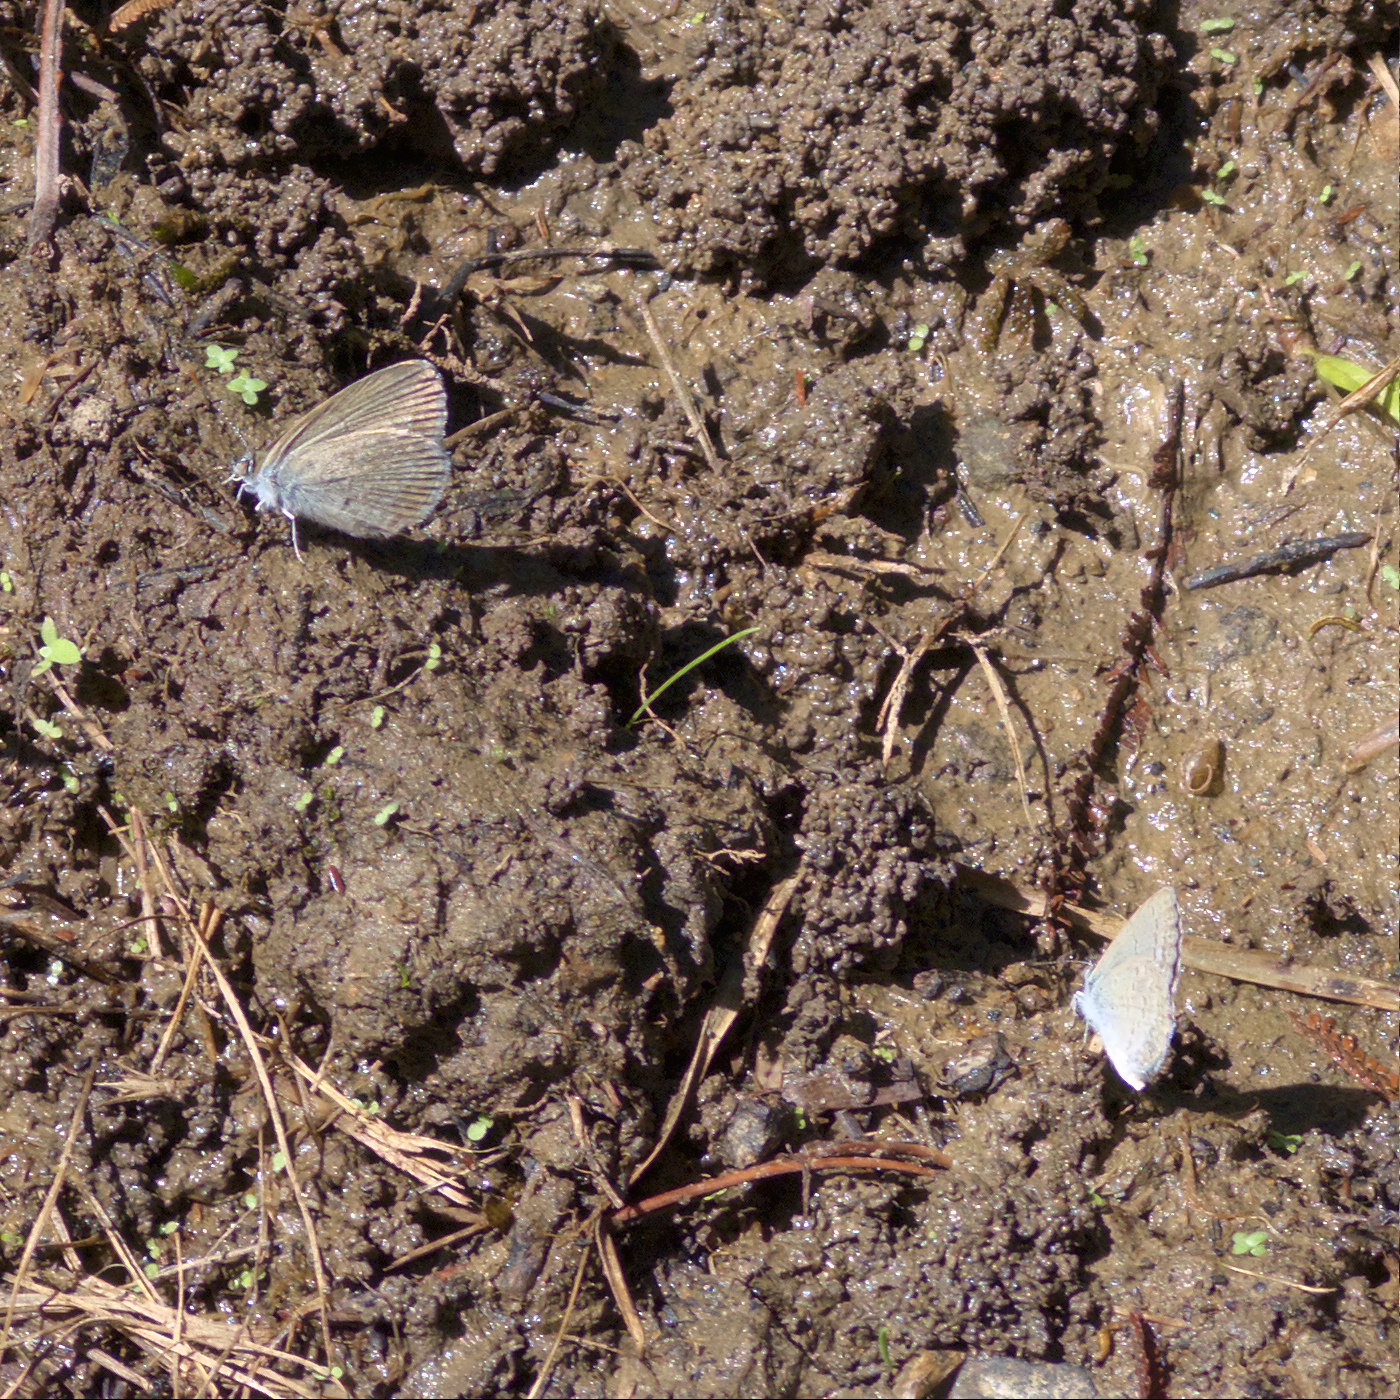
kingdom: Animalia
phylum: Arthropoda
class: Insecta
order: Lepidoptera
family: Lycaenidae
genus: Zizina
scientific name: Zizina otis
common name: Lesser grass blue
